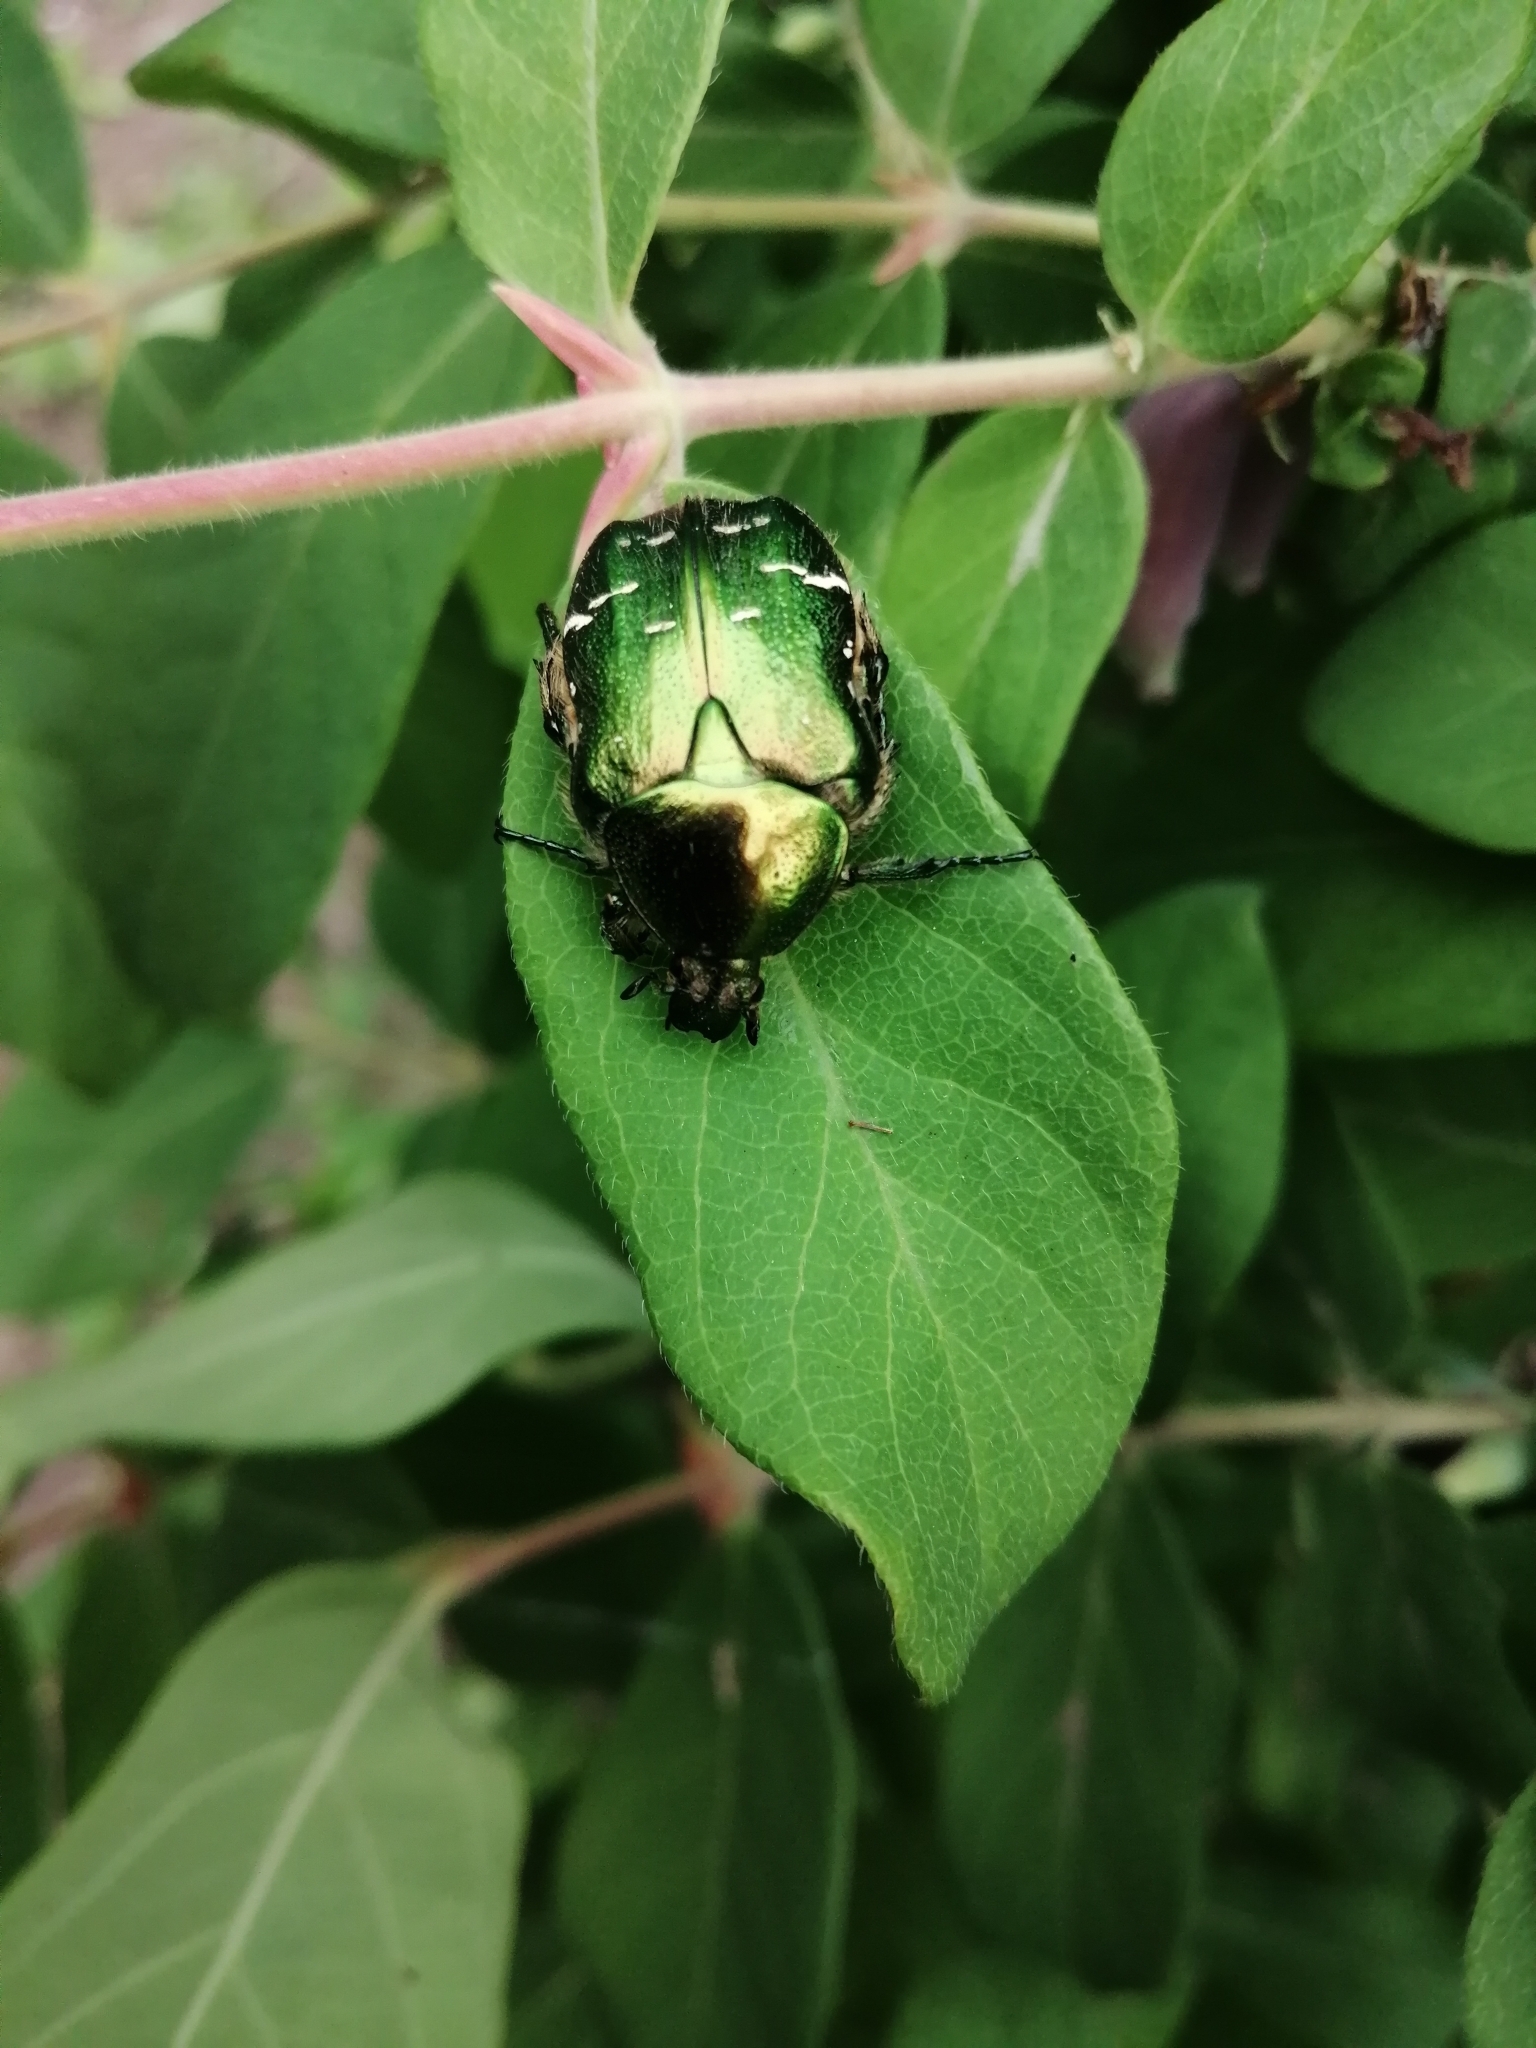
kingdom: Animalia
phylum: Arthropoda
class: Insecta
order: Coleoptera
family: Scarabaeidae
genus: Cetonia
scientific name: Cetonia aurata
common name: Rose chafer
